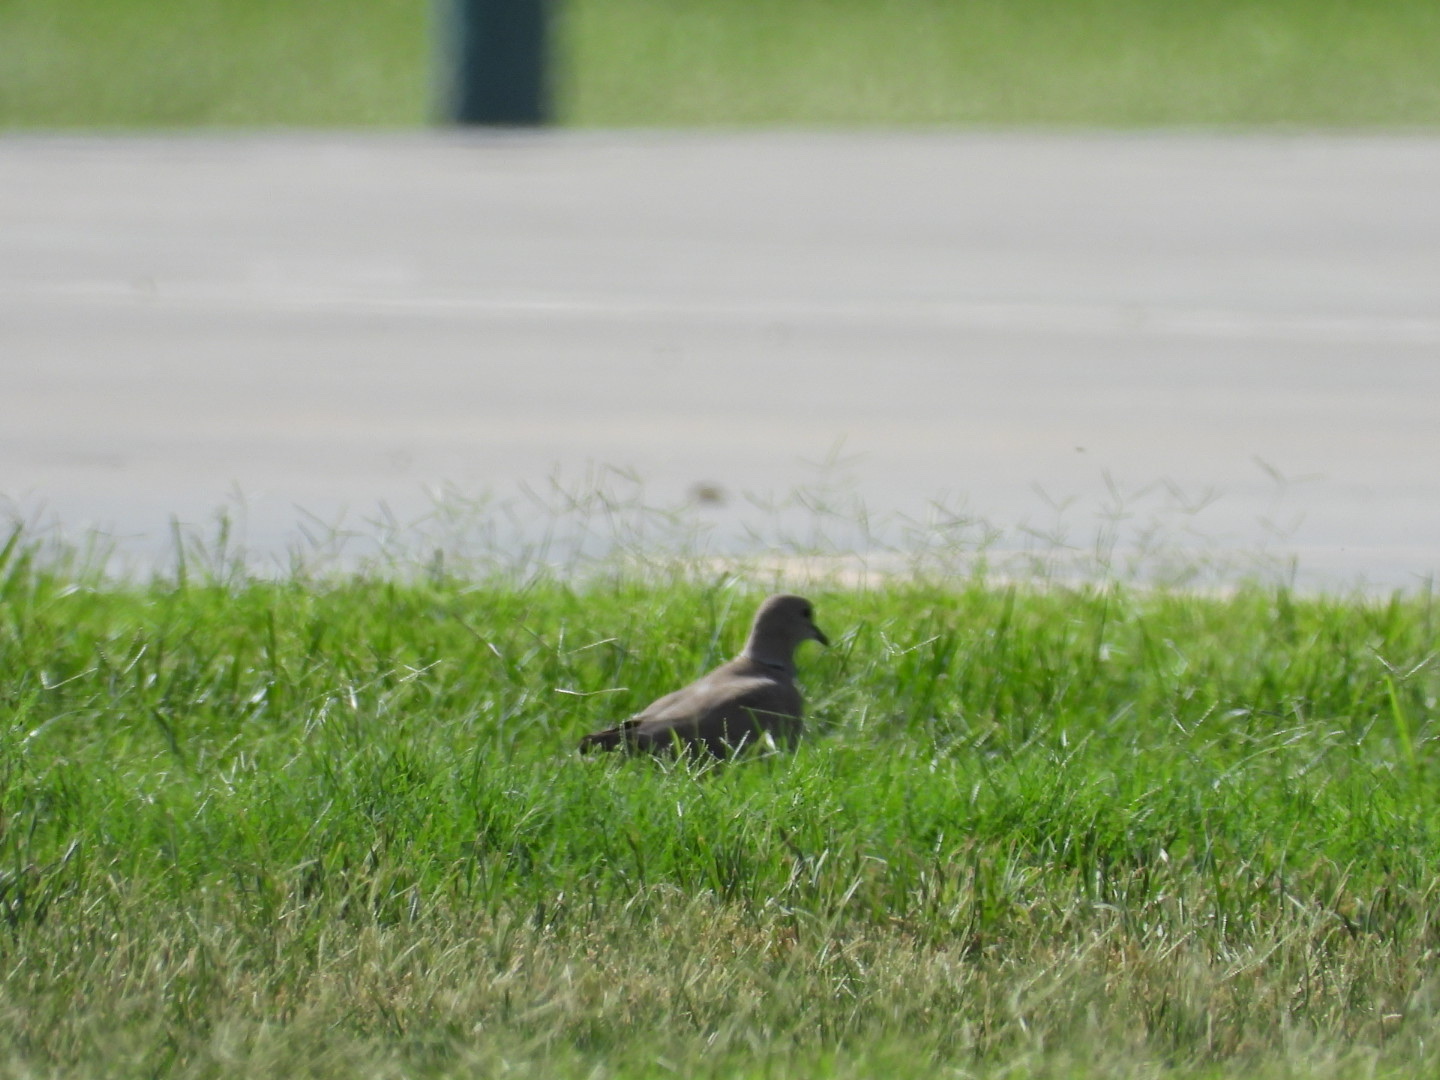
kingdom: Animalia
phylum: Chordata
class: Aves
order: Columbiformes
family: Columbidae
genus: Streptopelia
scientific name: Streptopelia decaocto
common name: Eurasian collared dove
